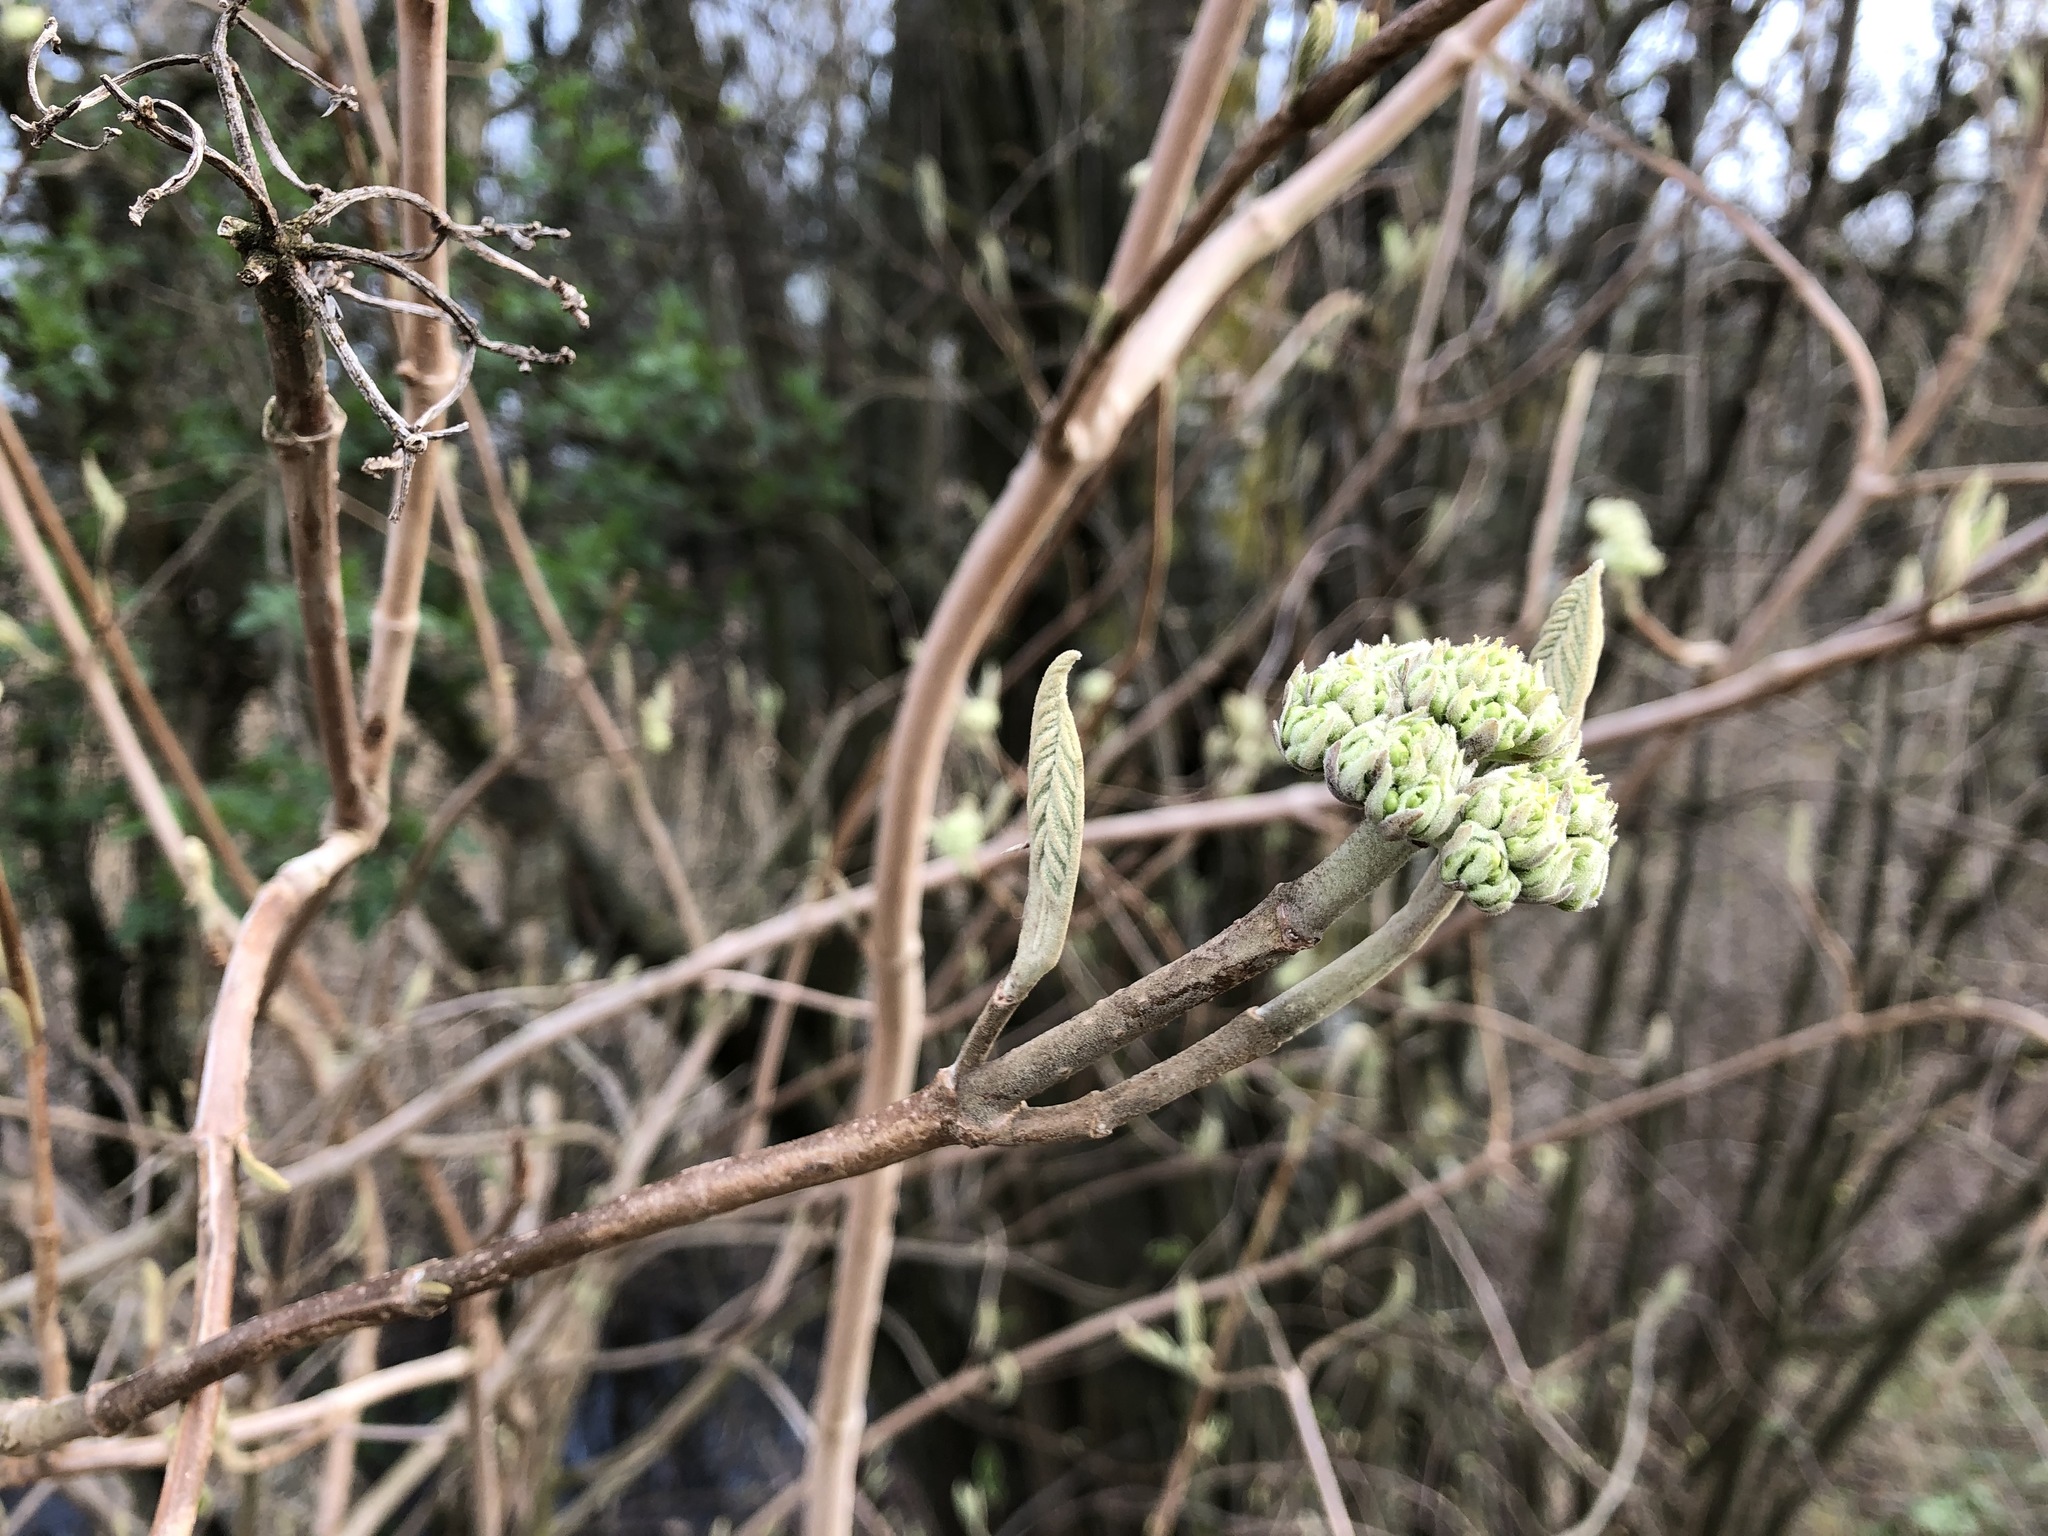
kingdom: Plantae
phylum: Tracheophyta
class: Magnoliopsida
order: Dipsacales
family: Viburnaceae
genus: Viburnum
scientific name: Viburnum lantana
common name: Wayfaring tree
